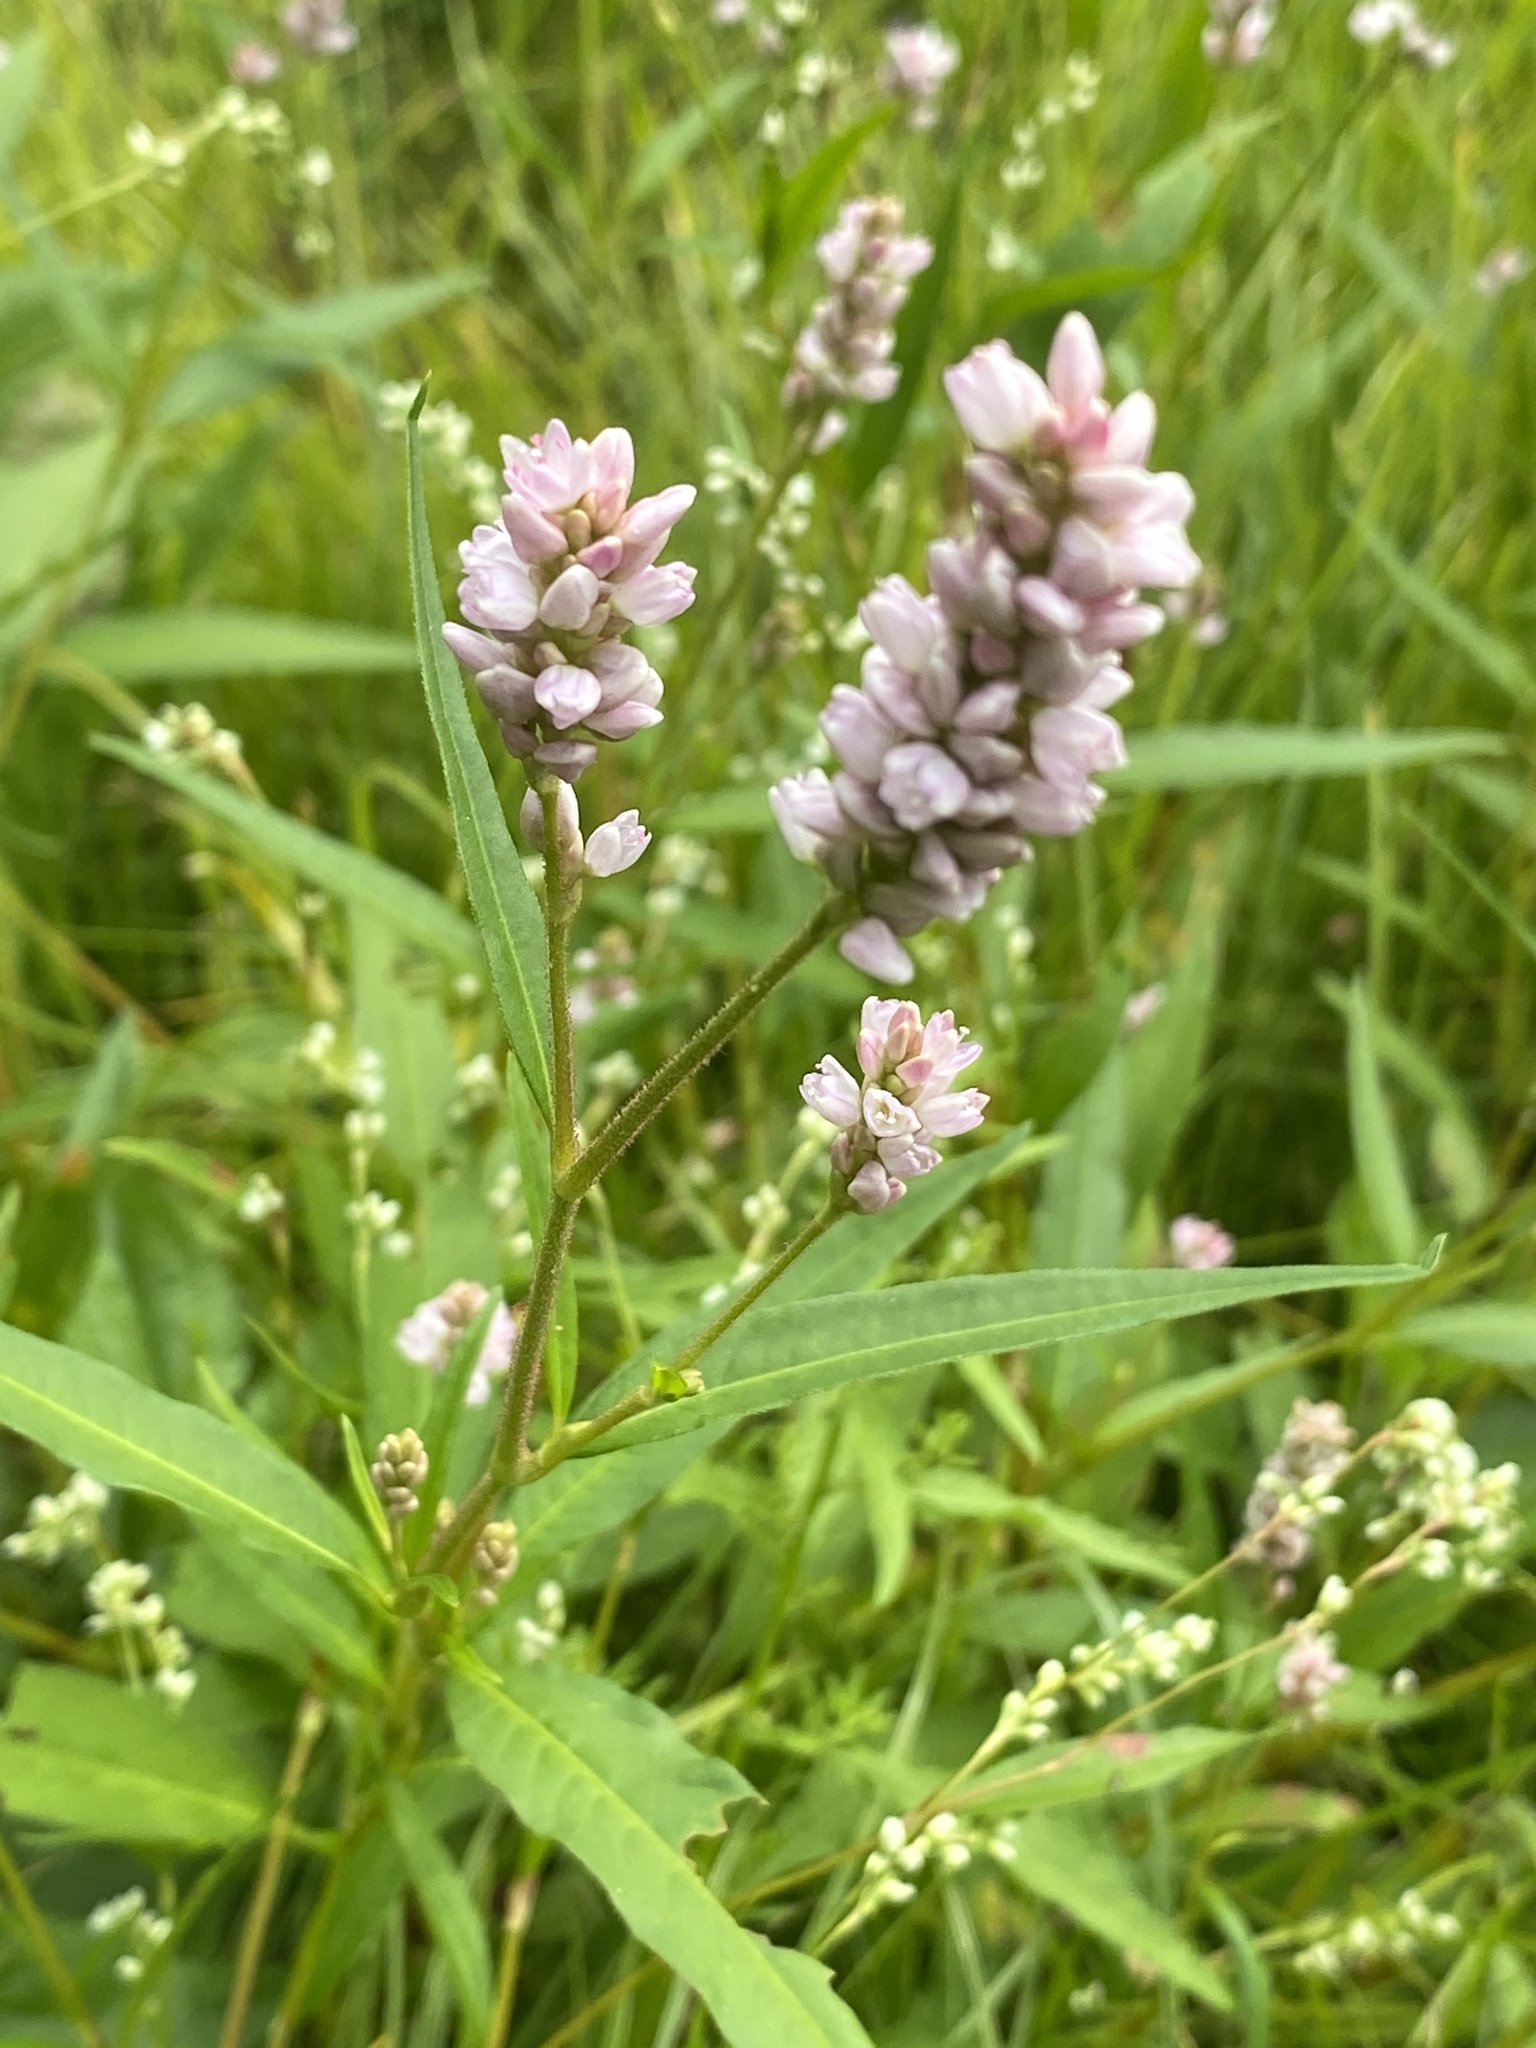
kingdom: Plantae
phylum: Tracheophyta
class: Magnoliopsida
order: Caryophyllales
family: Polygonaceae
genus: Persicaria
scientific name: Persicaria pensylvanica
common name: Pinkweed
